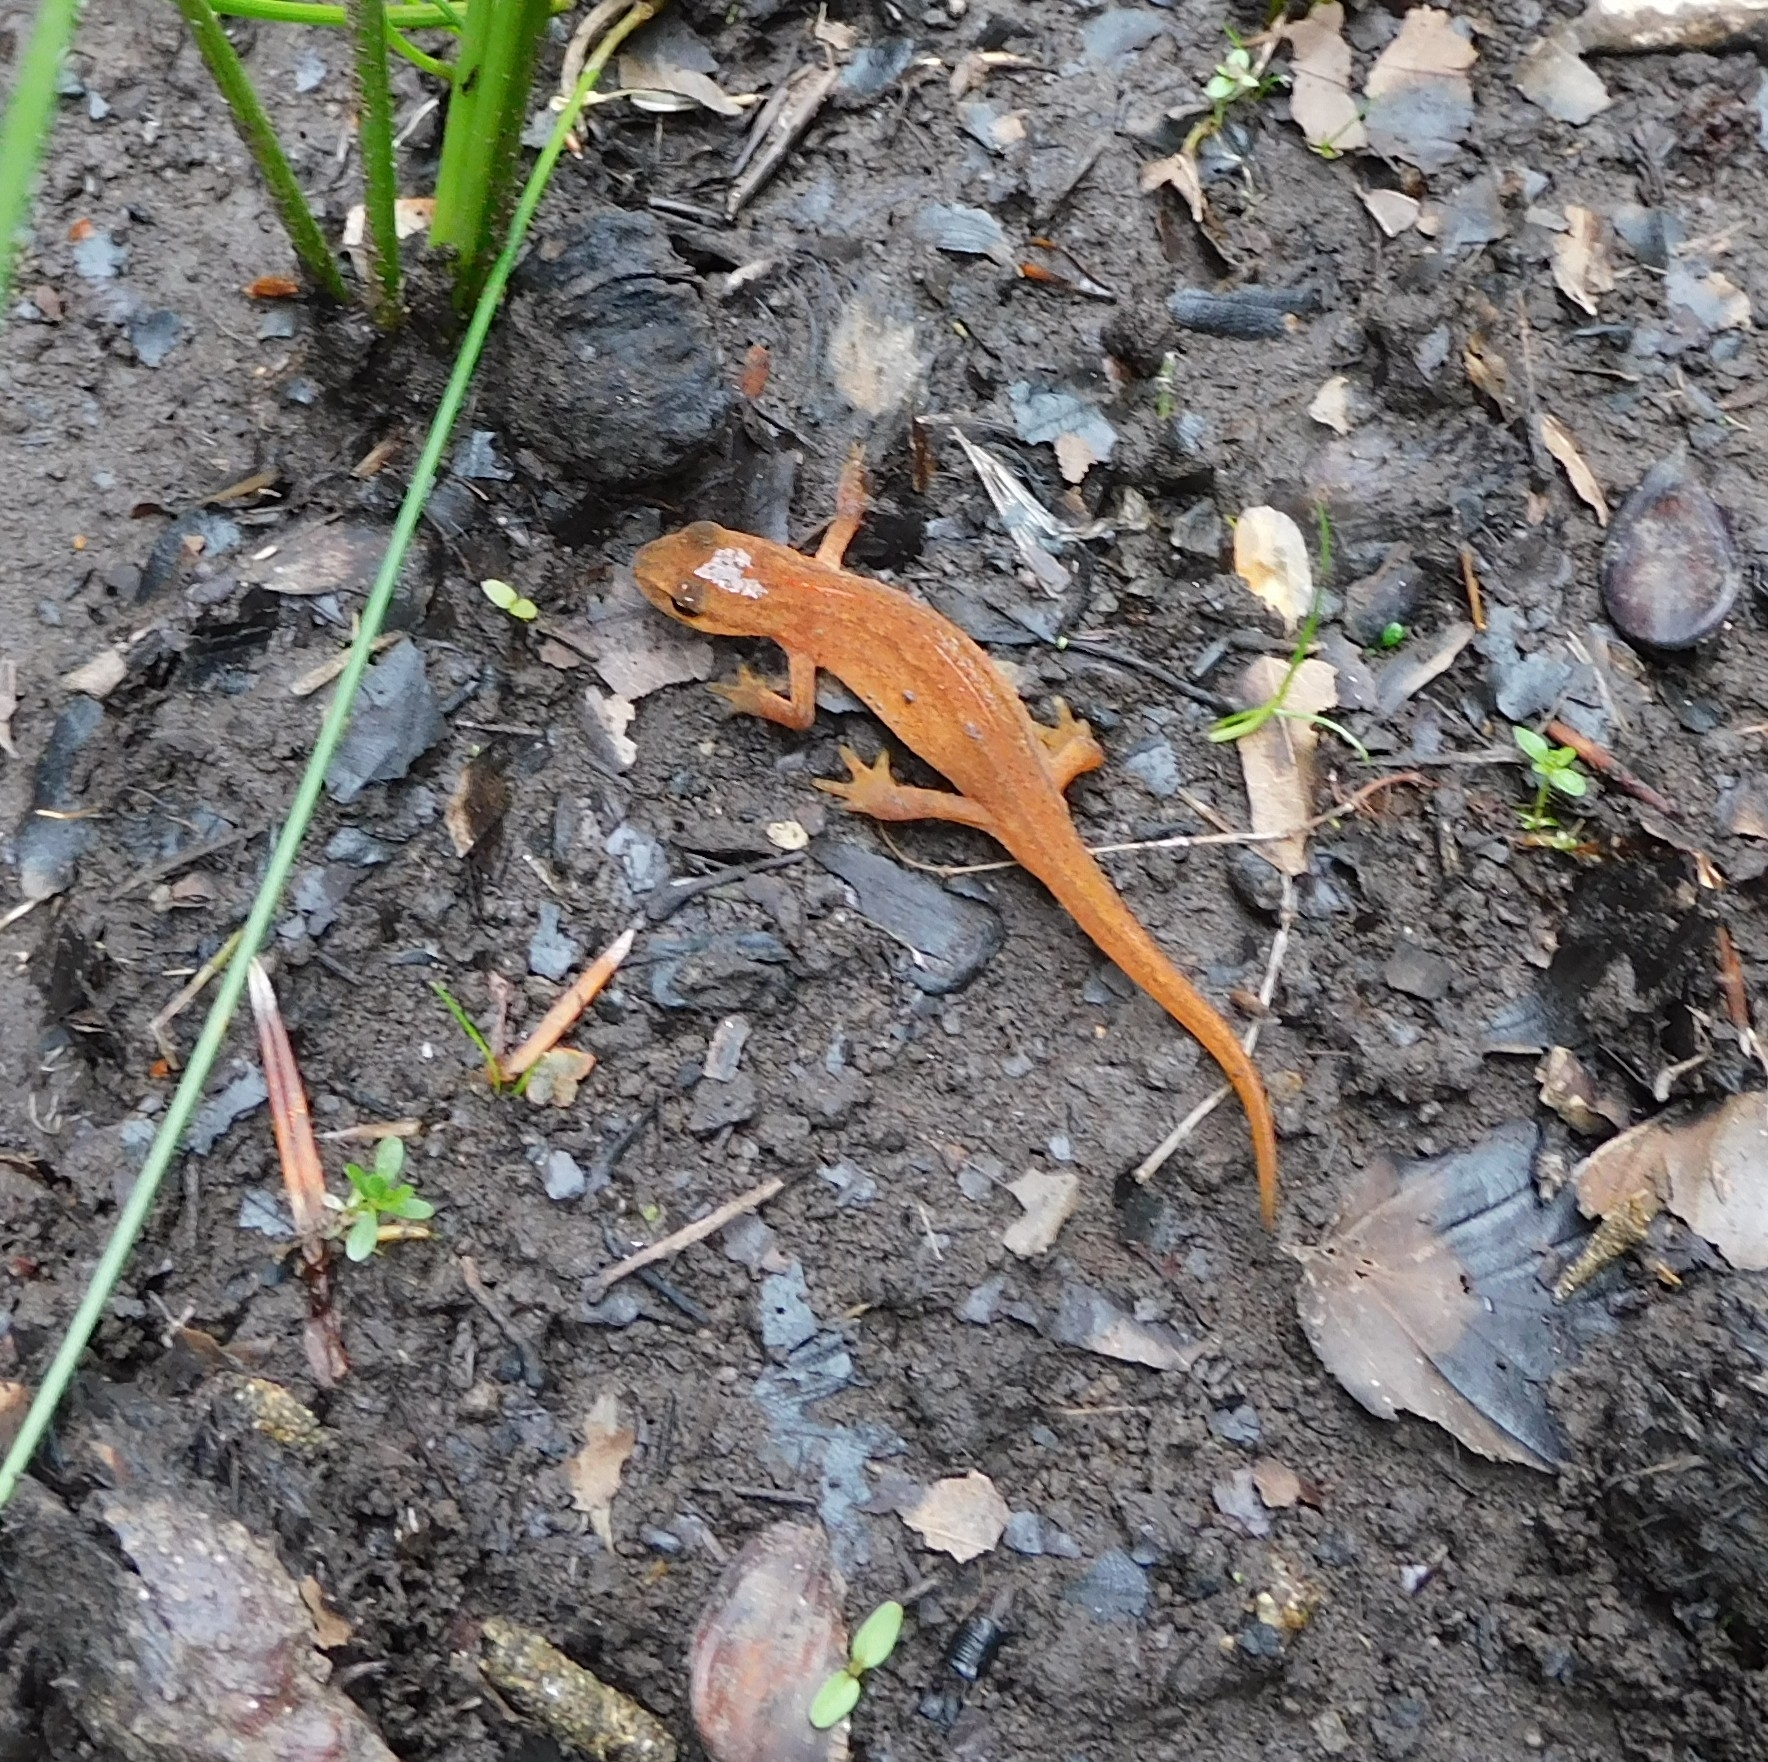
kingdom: Animalia
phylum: Chordata
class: Amphibia
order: Caudata
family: Salamandridae
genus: Lissotriton
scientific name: Lissotriton vulgaris
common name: Smooth newt
